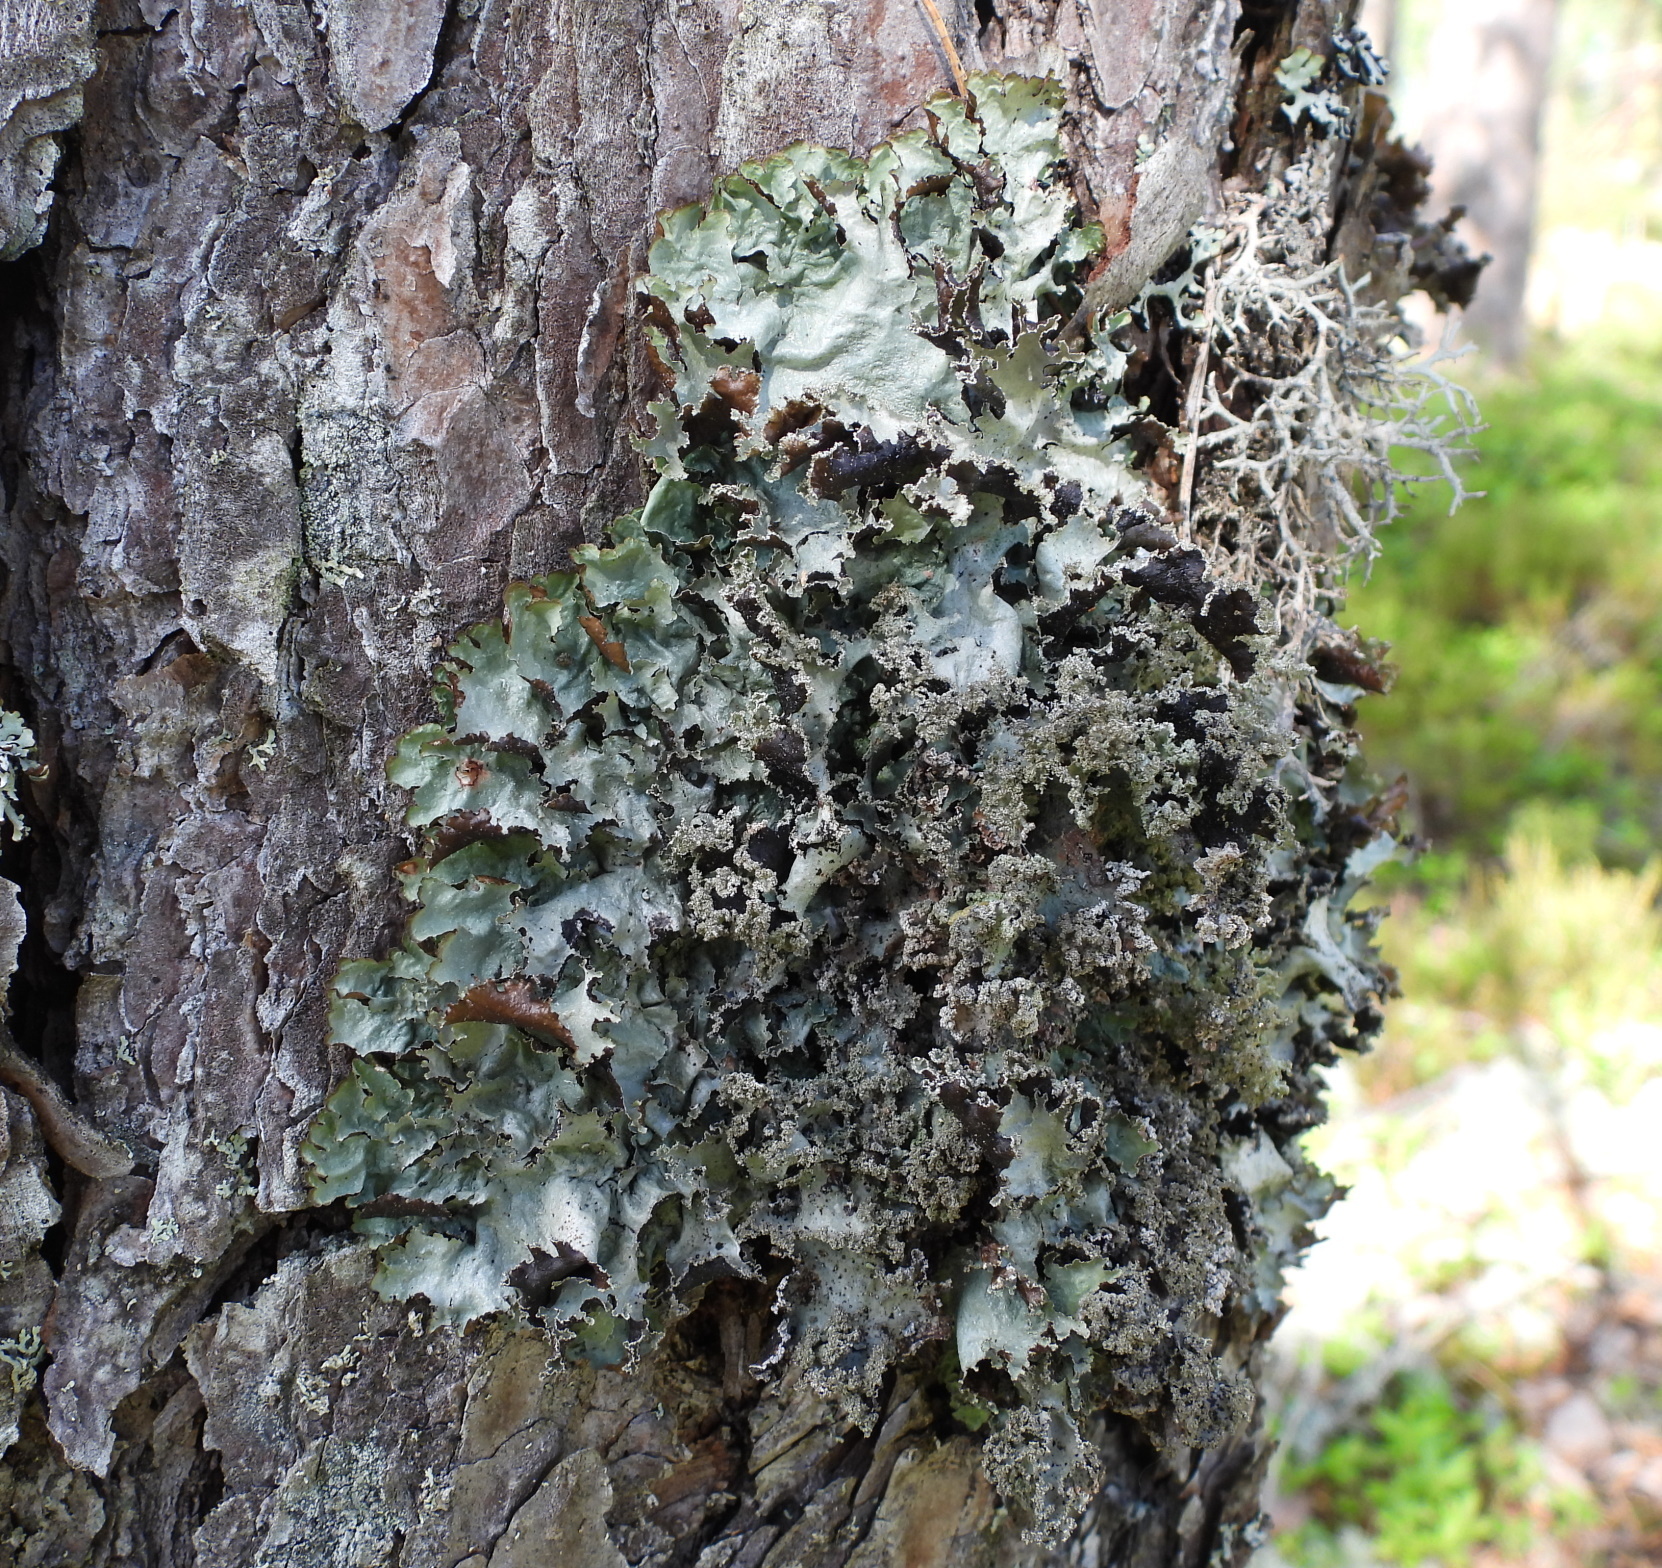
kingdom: Fungi
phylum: Ascomycota
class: Lecanoromycetes
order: Lecanorales
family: Parmeliaceae
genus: Platismatia
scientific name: Platismatia glauca
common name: Varied rag lichen
